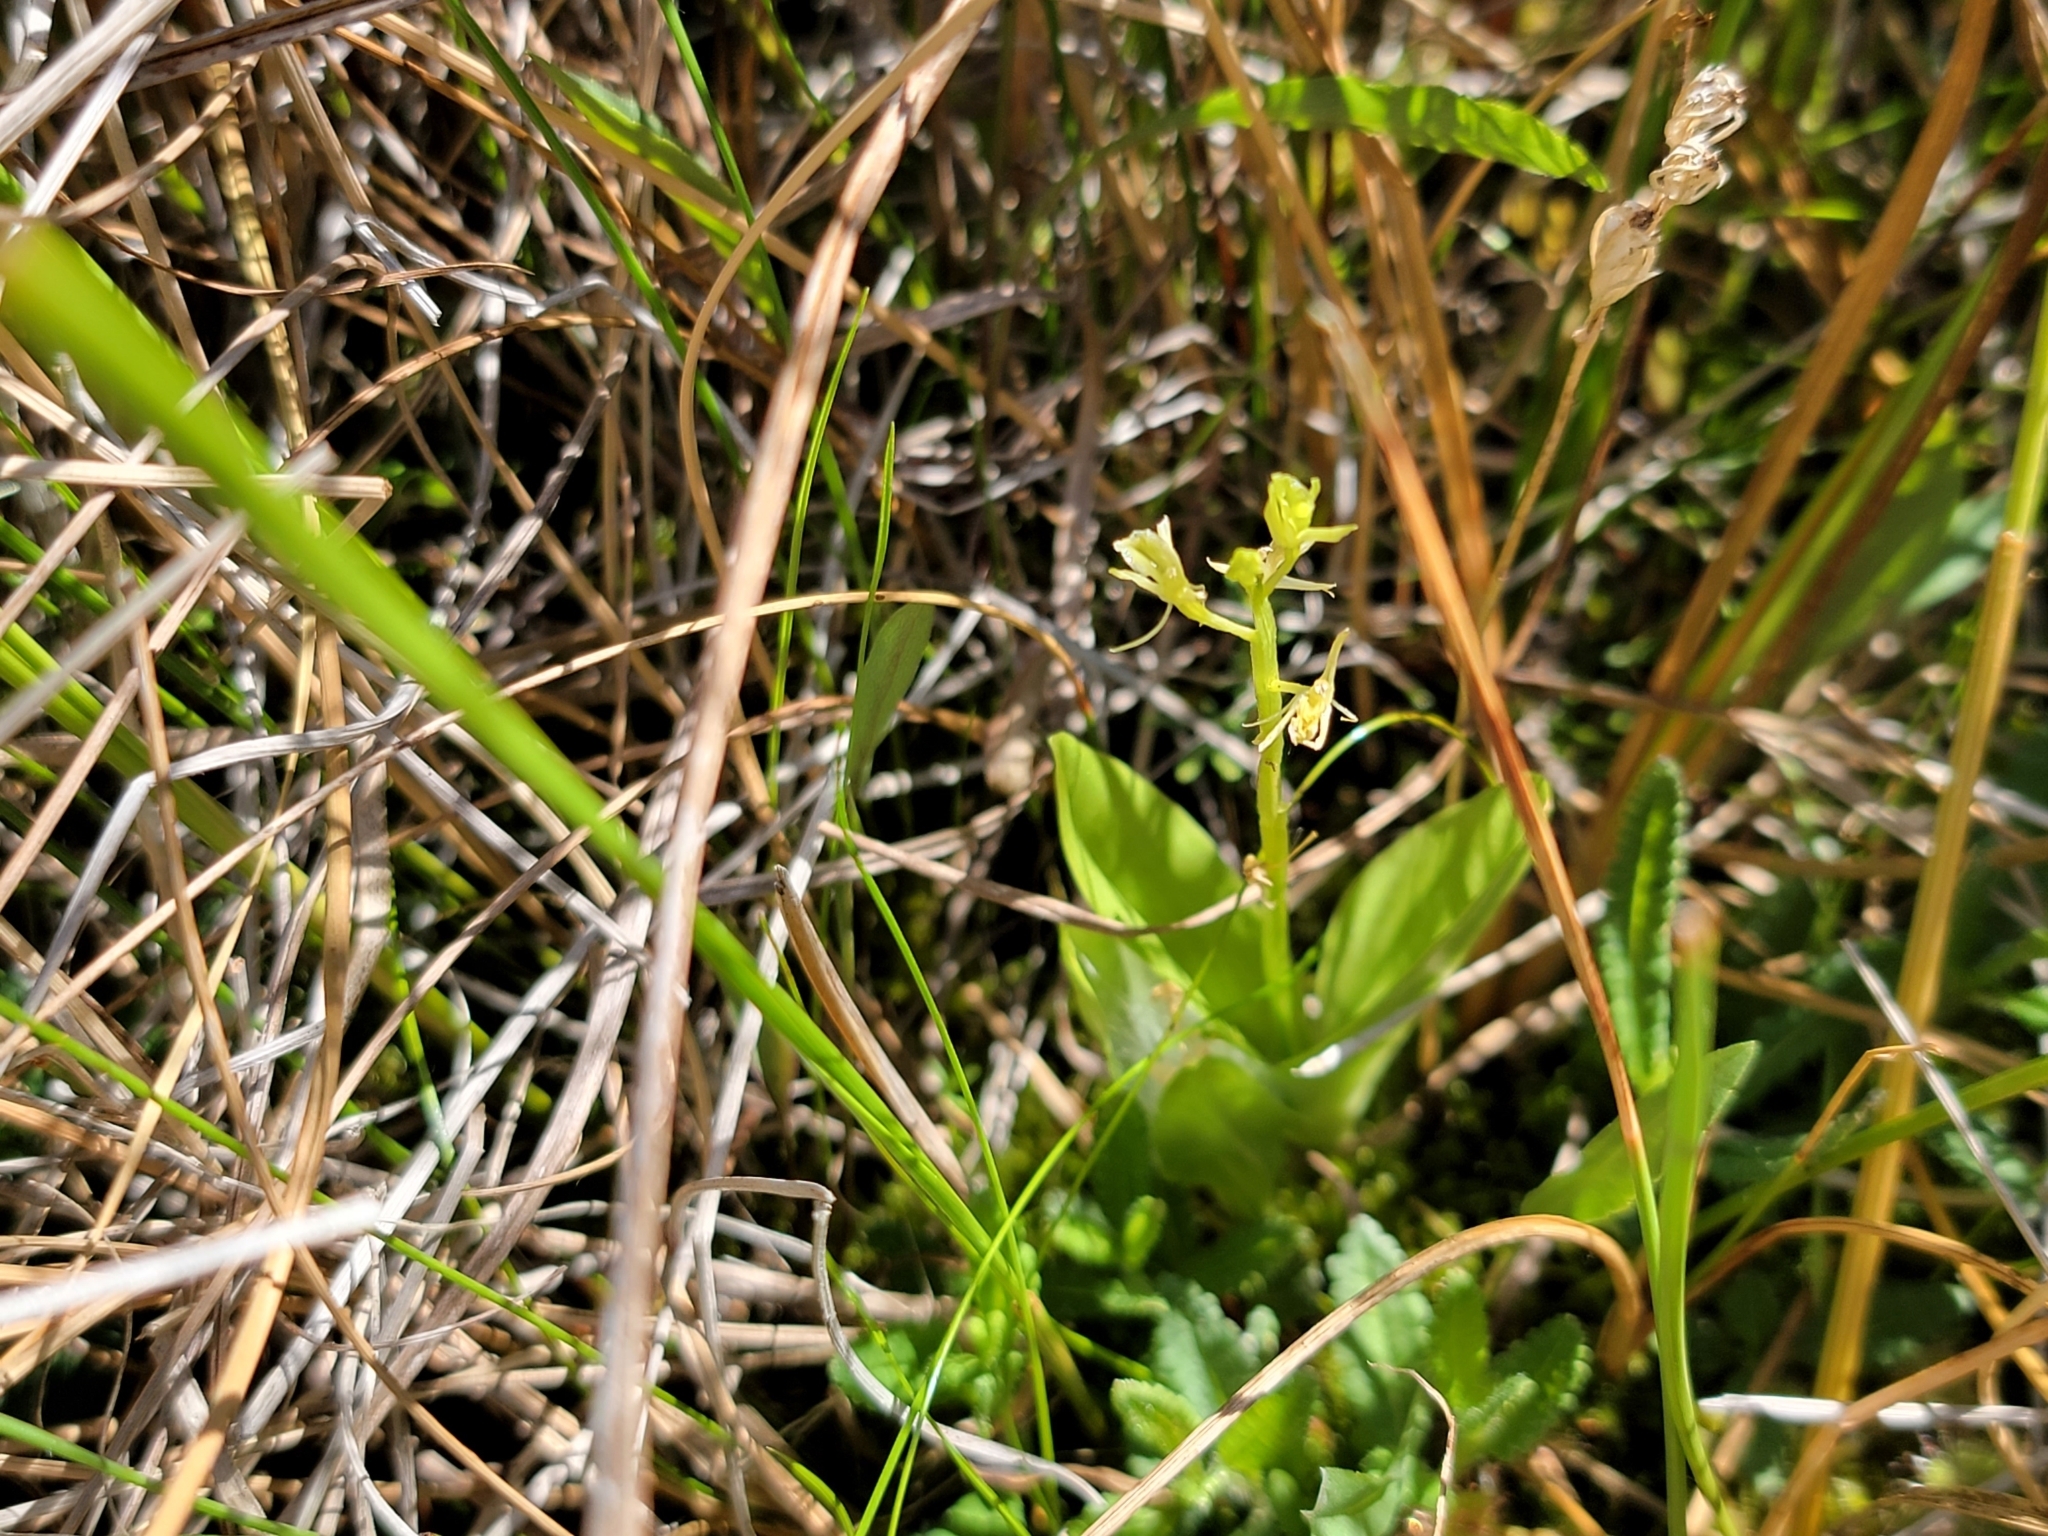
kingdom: Animalia
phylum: Arthropoda
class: Insecta
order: Coleoptera
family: Curculionidae
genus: Liparis
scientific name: Liparis loeselii
